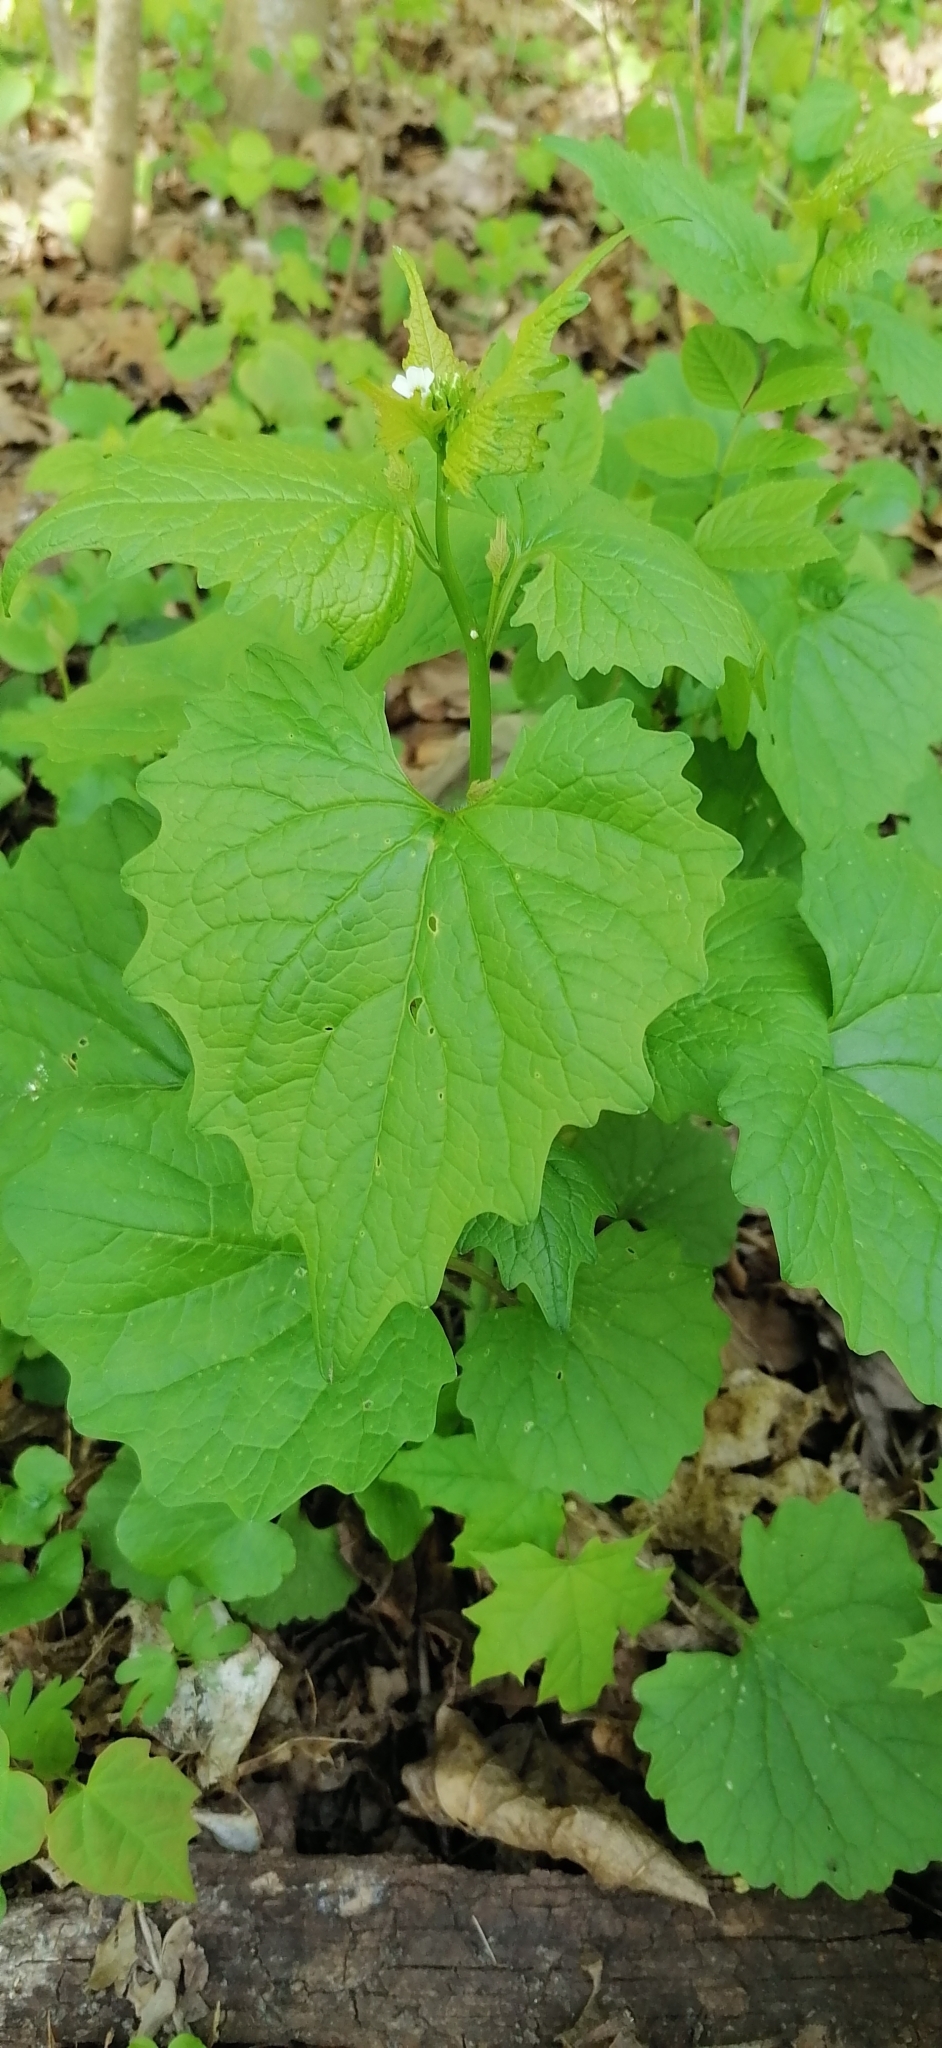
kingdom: Plantae
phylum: Tracheophyta
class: Magnoliopsida
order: Brassicales
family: Brassicaceae
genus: Alliaria
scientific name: Alliaria petiolata
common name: Garlic mustard
